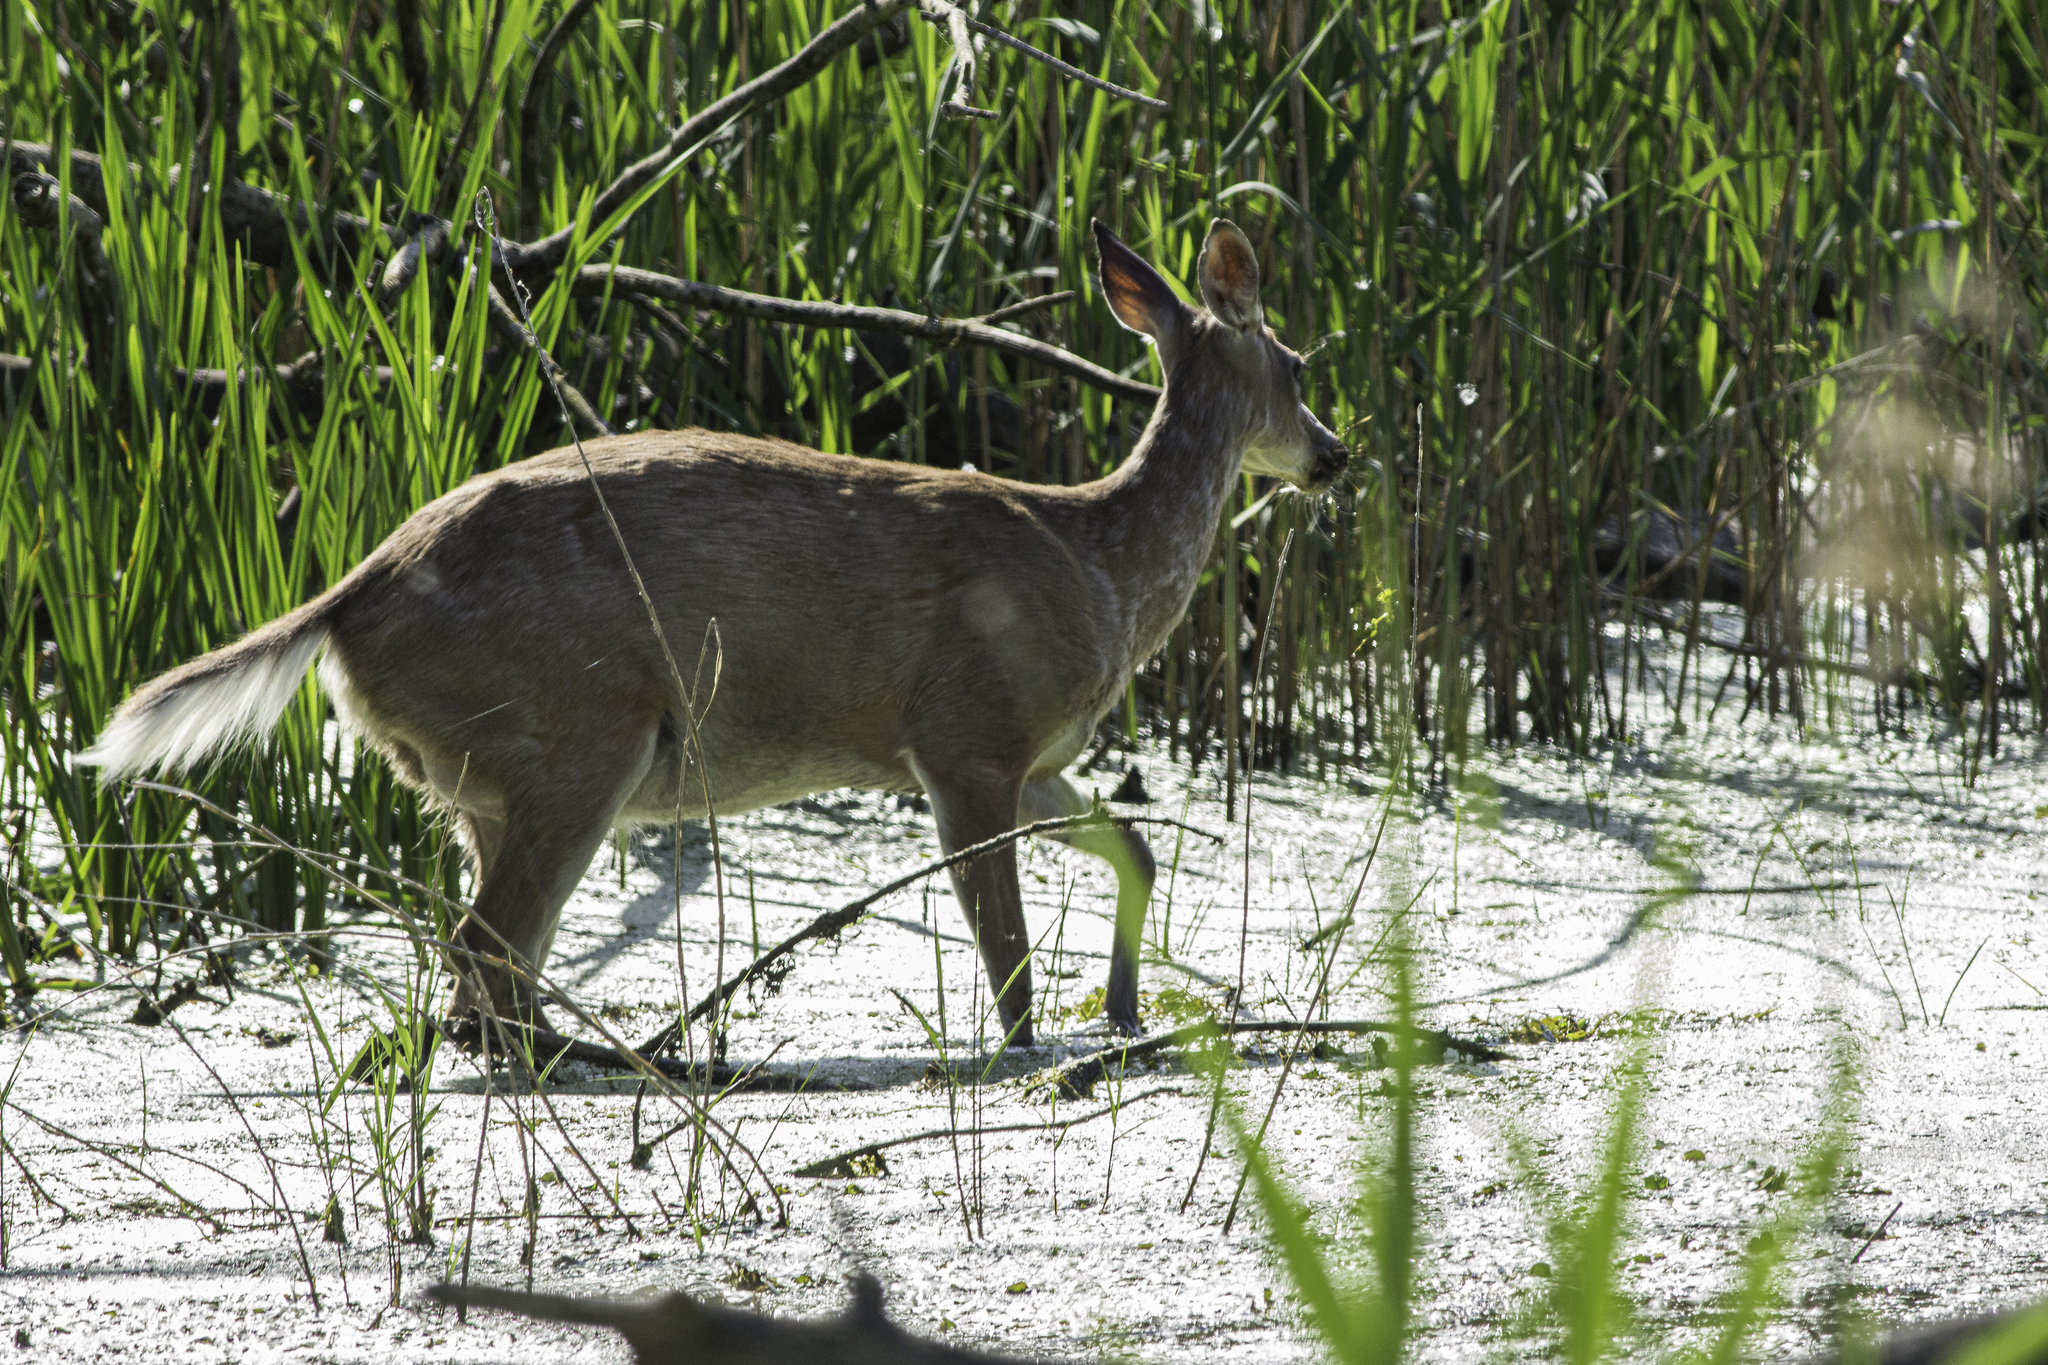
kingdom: Animalia
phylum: Chordata
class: Mammalia
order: Artiodactyla
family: Cervidae
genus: Odocoileus
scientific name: Odocoileus virginianus
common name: White-tailed deer
